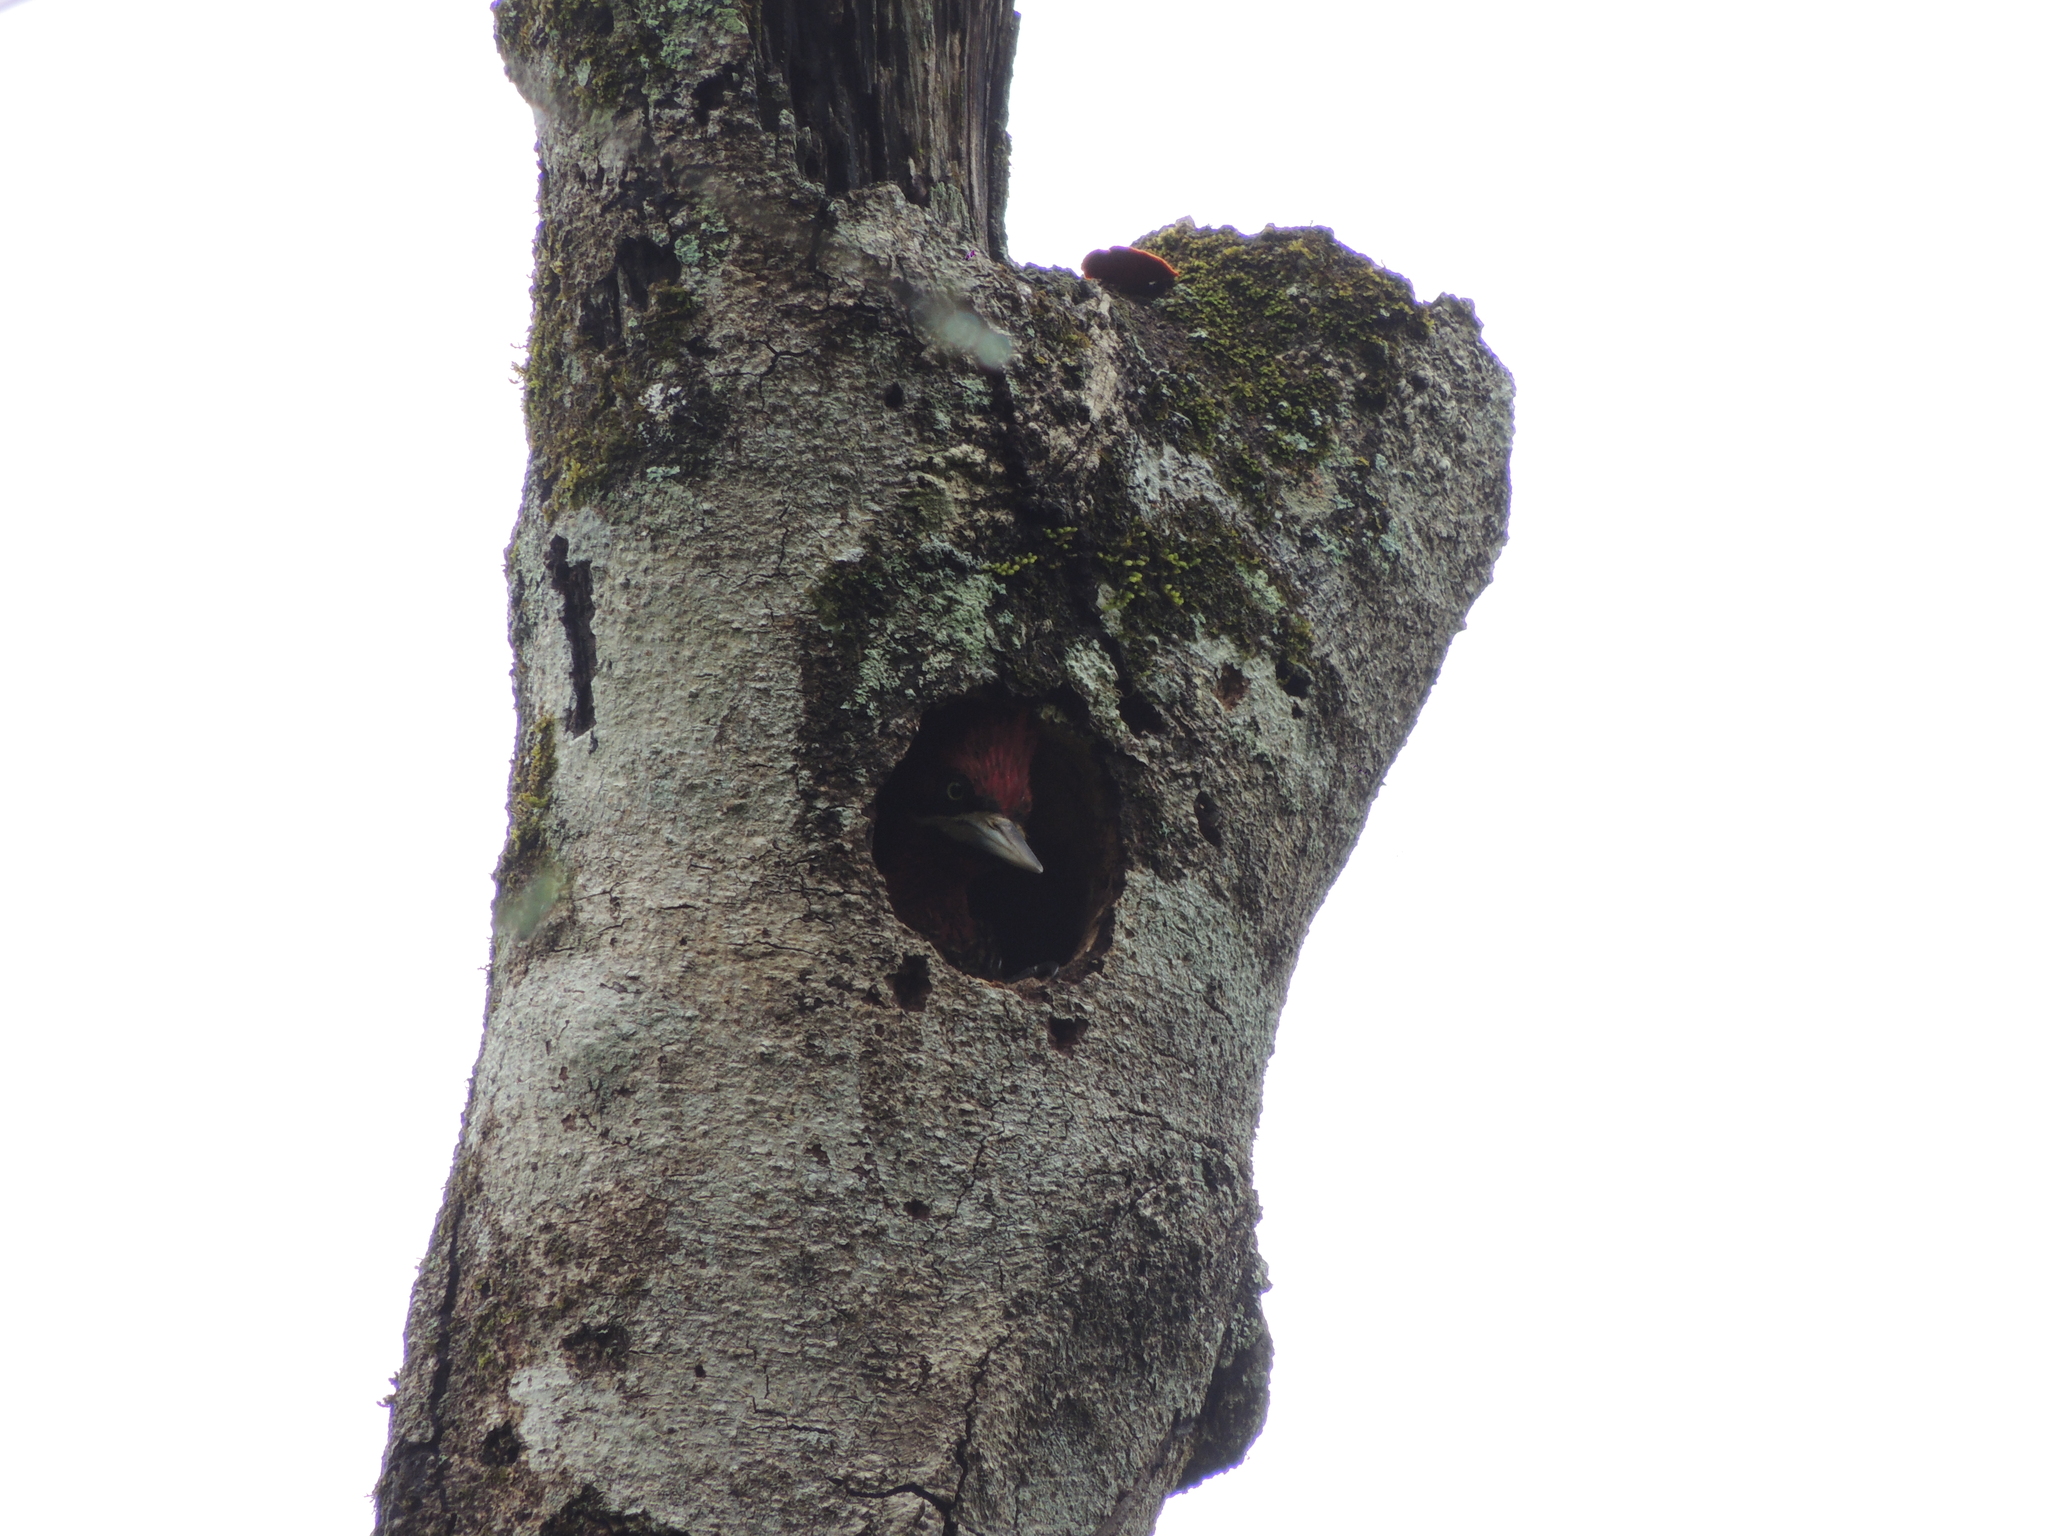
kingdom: Animalia
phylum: Chordata
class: Aves
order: Piciformes
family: Picidae
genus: Campephilus
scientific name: Campephilus robustus
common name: Robust woodpecker
